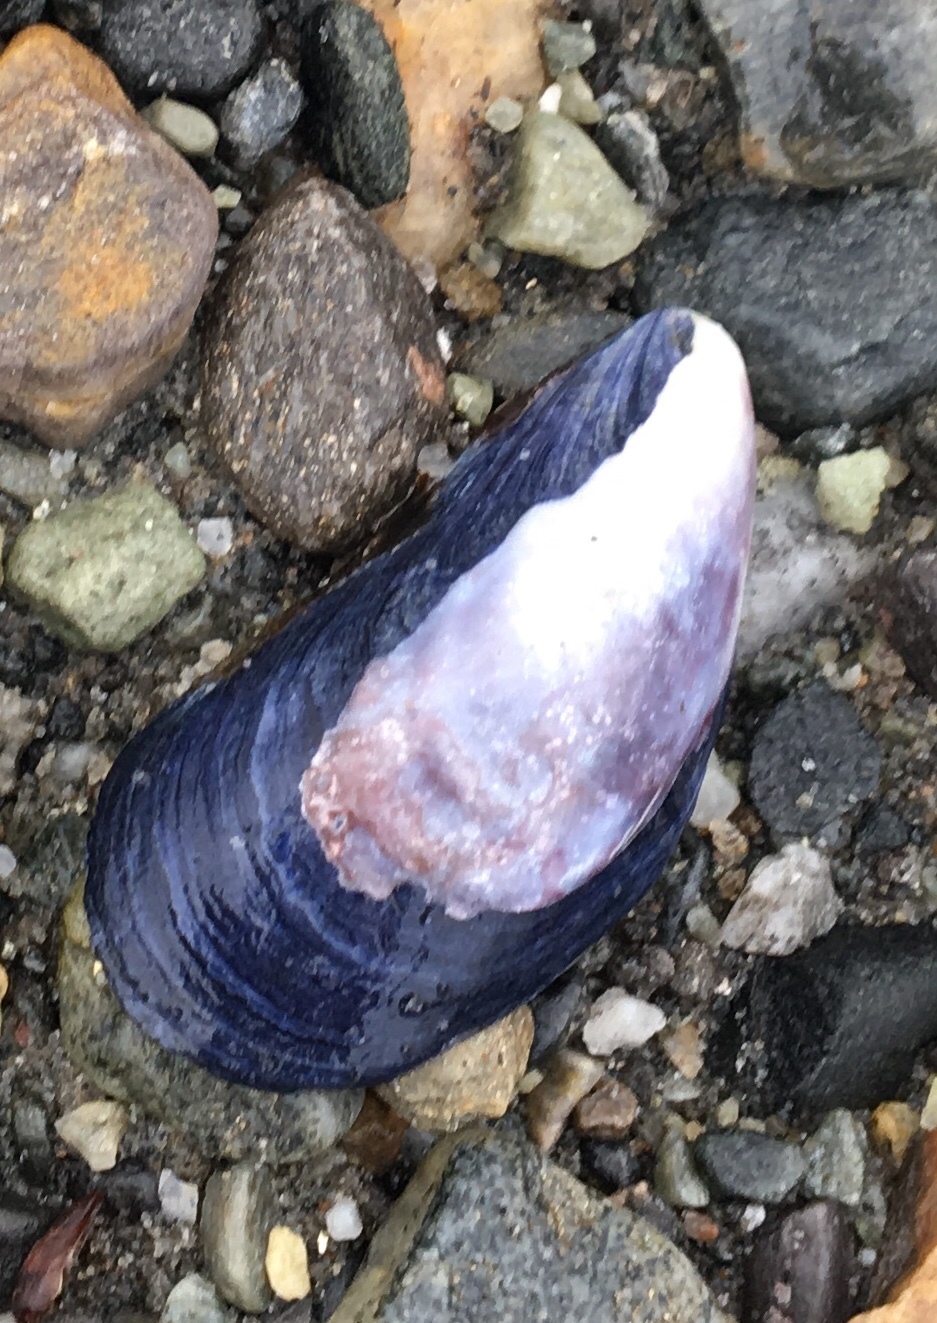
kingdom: Animalia
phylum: Mollusca
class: Bivalvia
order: Mytilida
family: Mytilidae
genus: Mytilus
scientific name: Mytilus edulis
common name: Blue mussel
